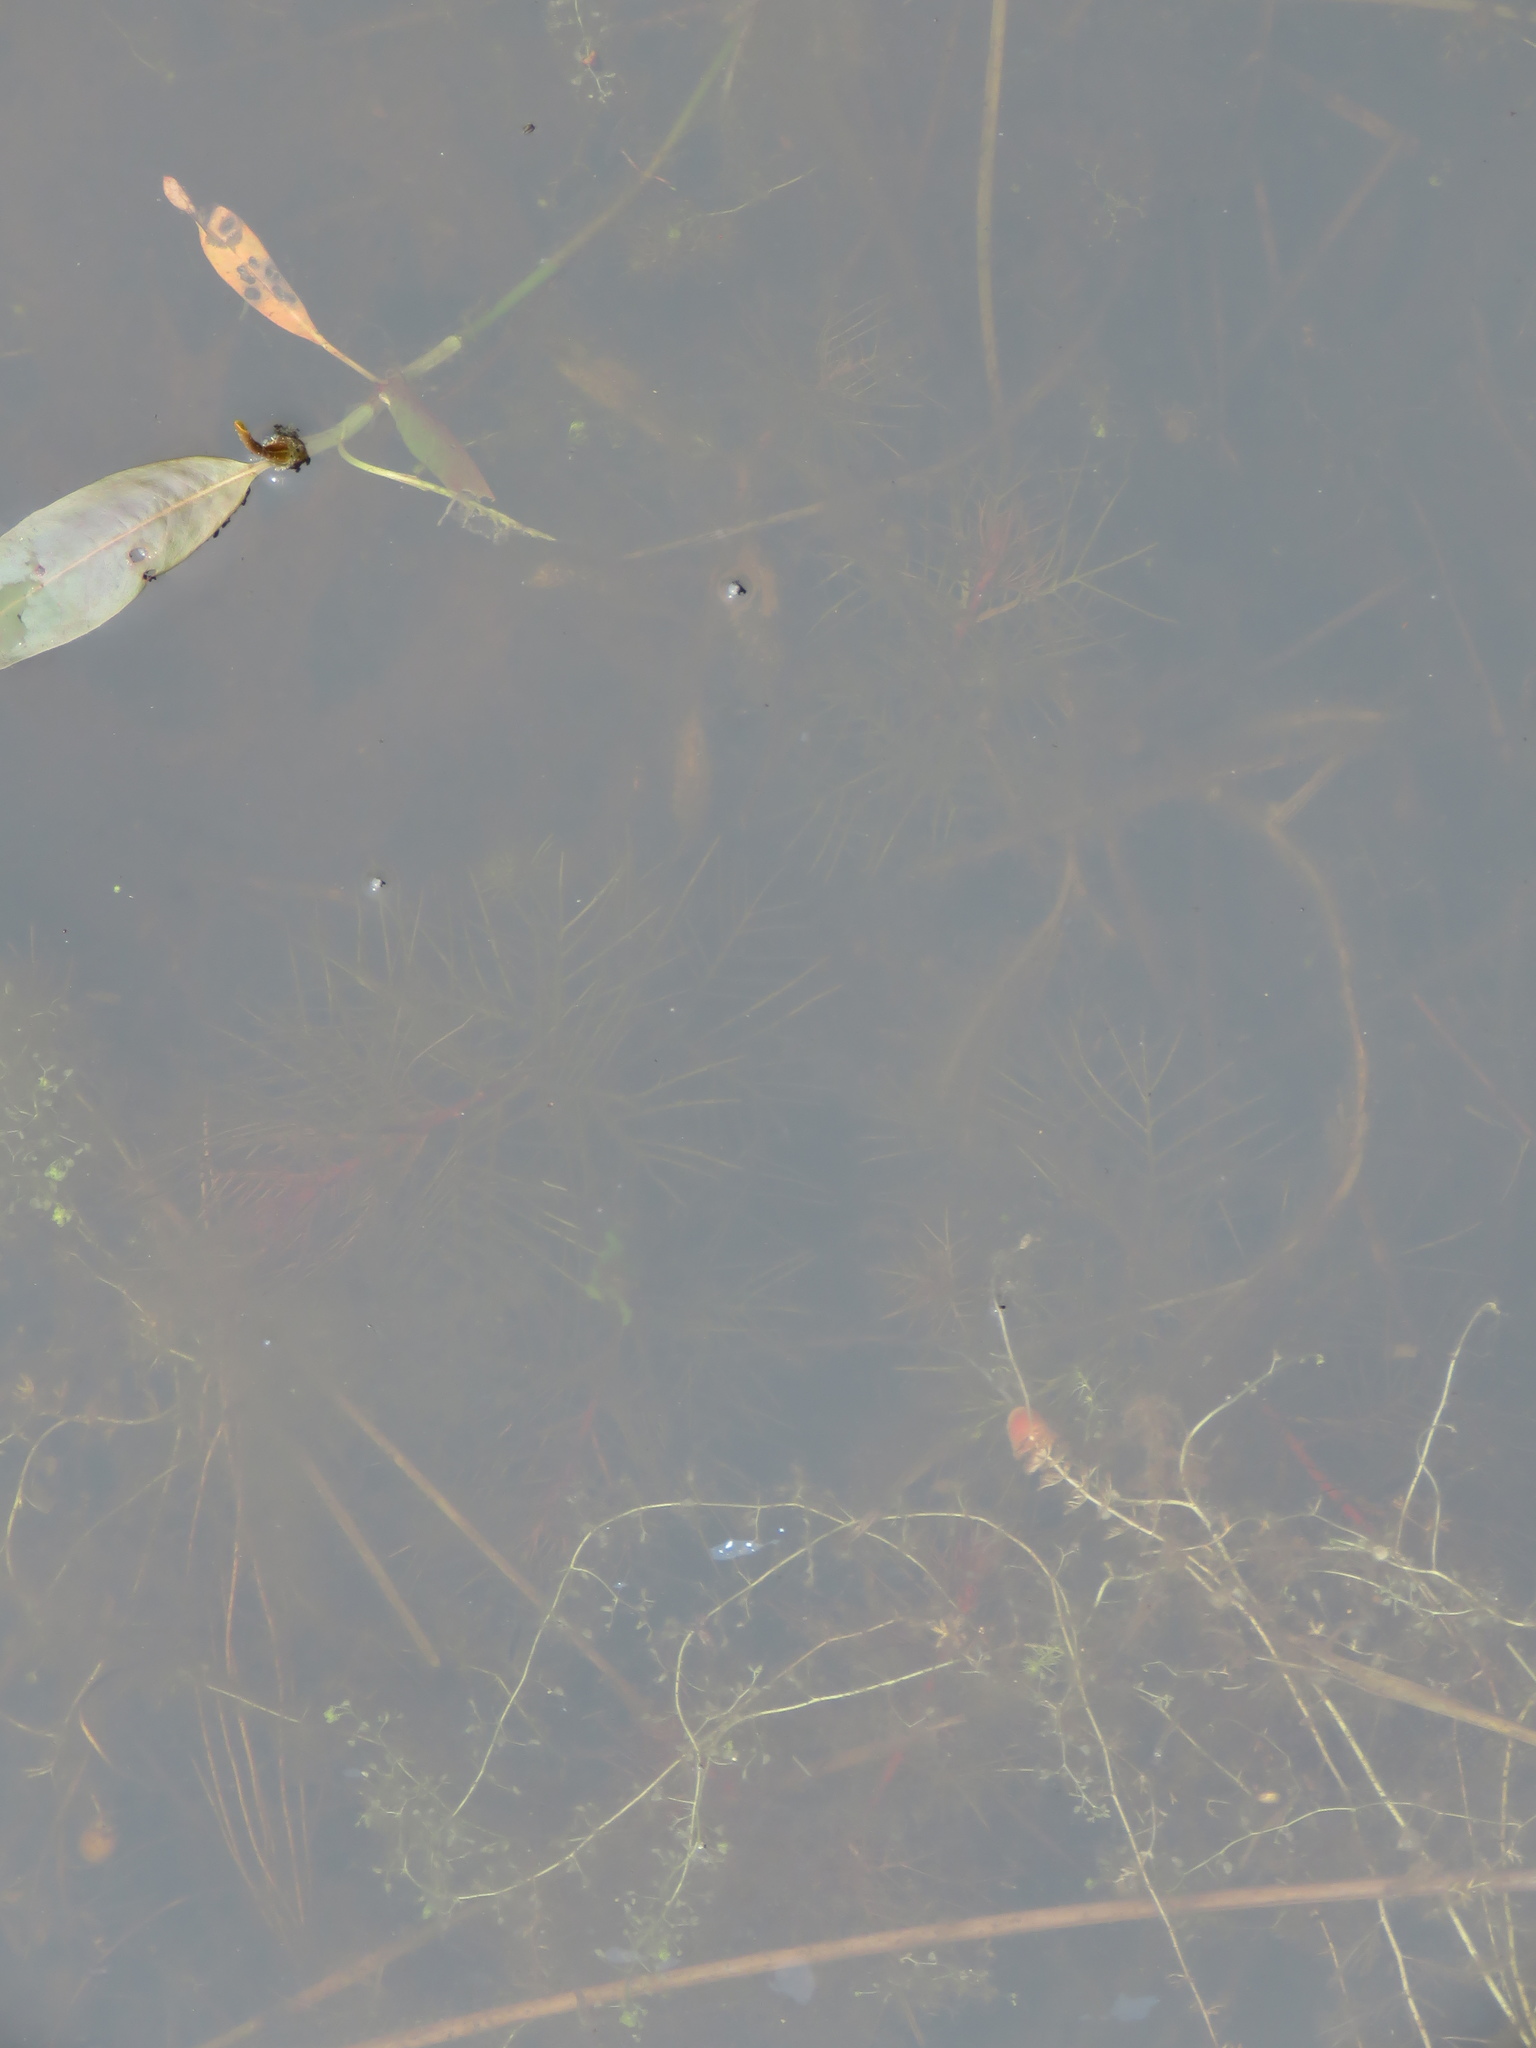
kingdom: Plantae
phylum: Tracheophyta
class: Magnoliopsida
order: Ranunculales
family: Ranunculaceae
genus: Ranunculus
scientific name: Ranunculus flabellaris
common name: Yellow water-crowfoot
